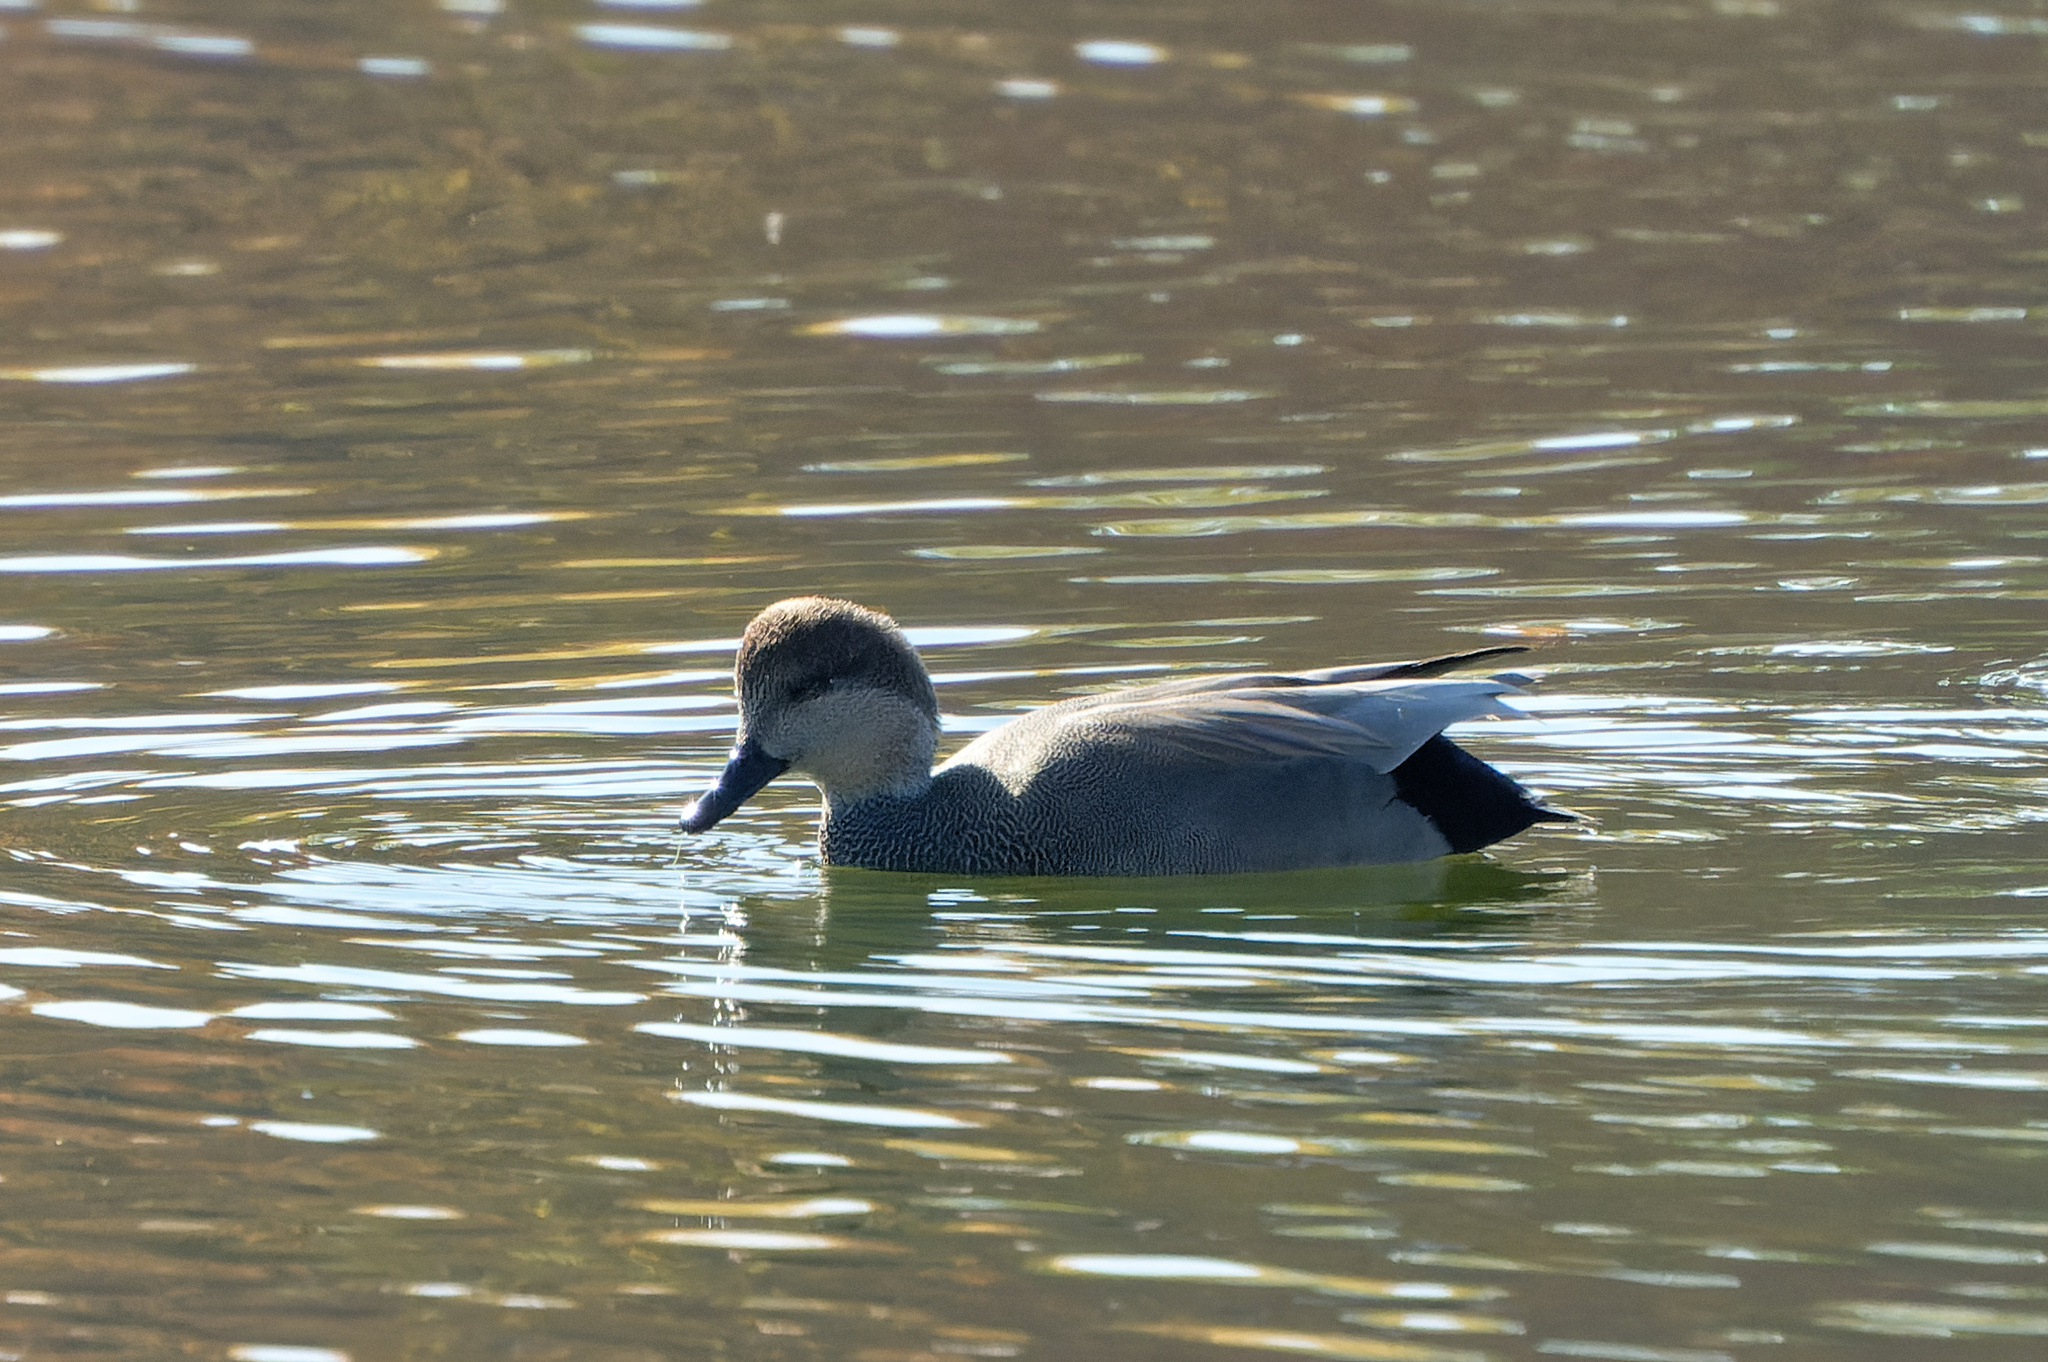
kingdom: Animalia
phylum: Chordata
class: Aves
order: Anseriformes
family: Anatidae
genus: Mareca
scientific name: Mareca strepera
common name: Gadwall
